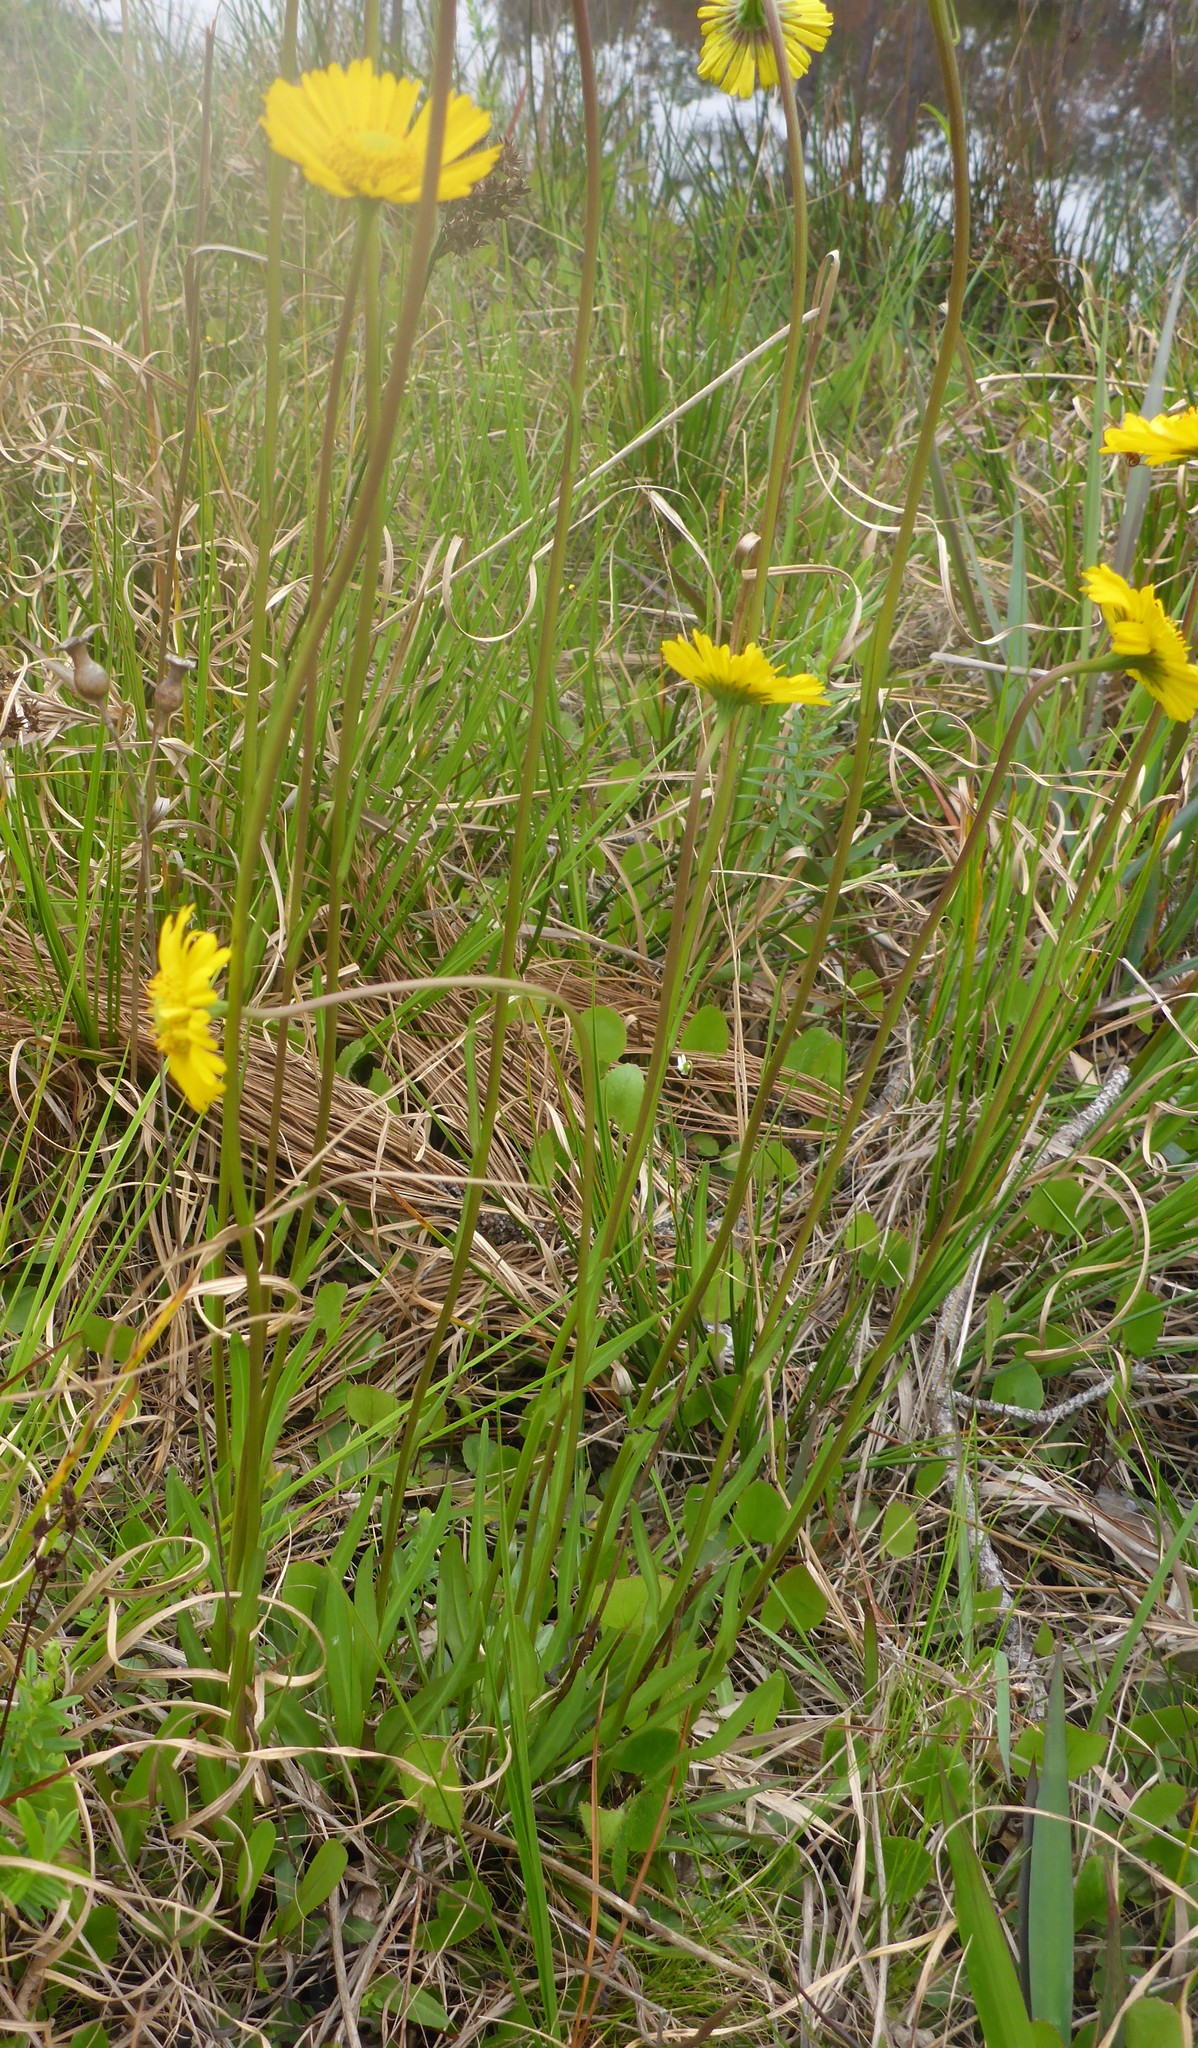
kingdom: Plantae
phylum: Tracheophyta
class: Magnoliopsida
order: Asterales
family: Asteraceae
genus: Helenium
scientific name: Helenium vernale
